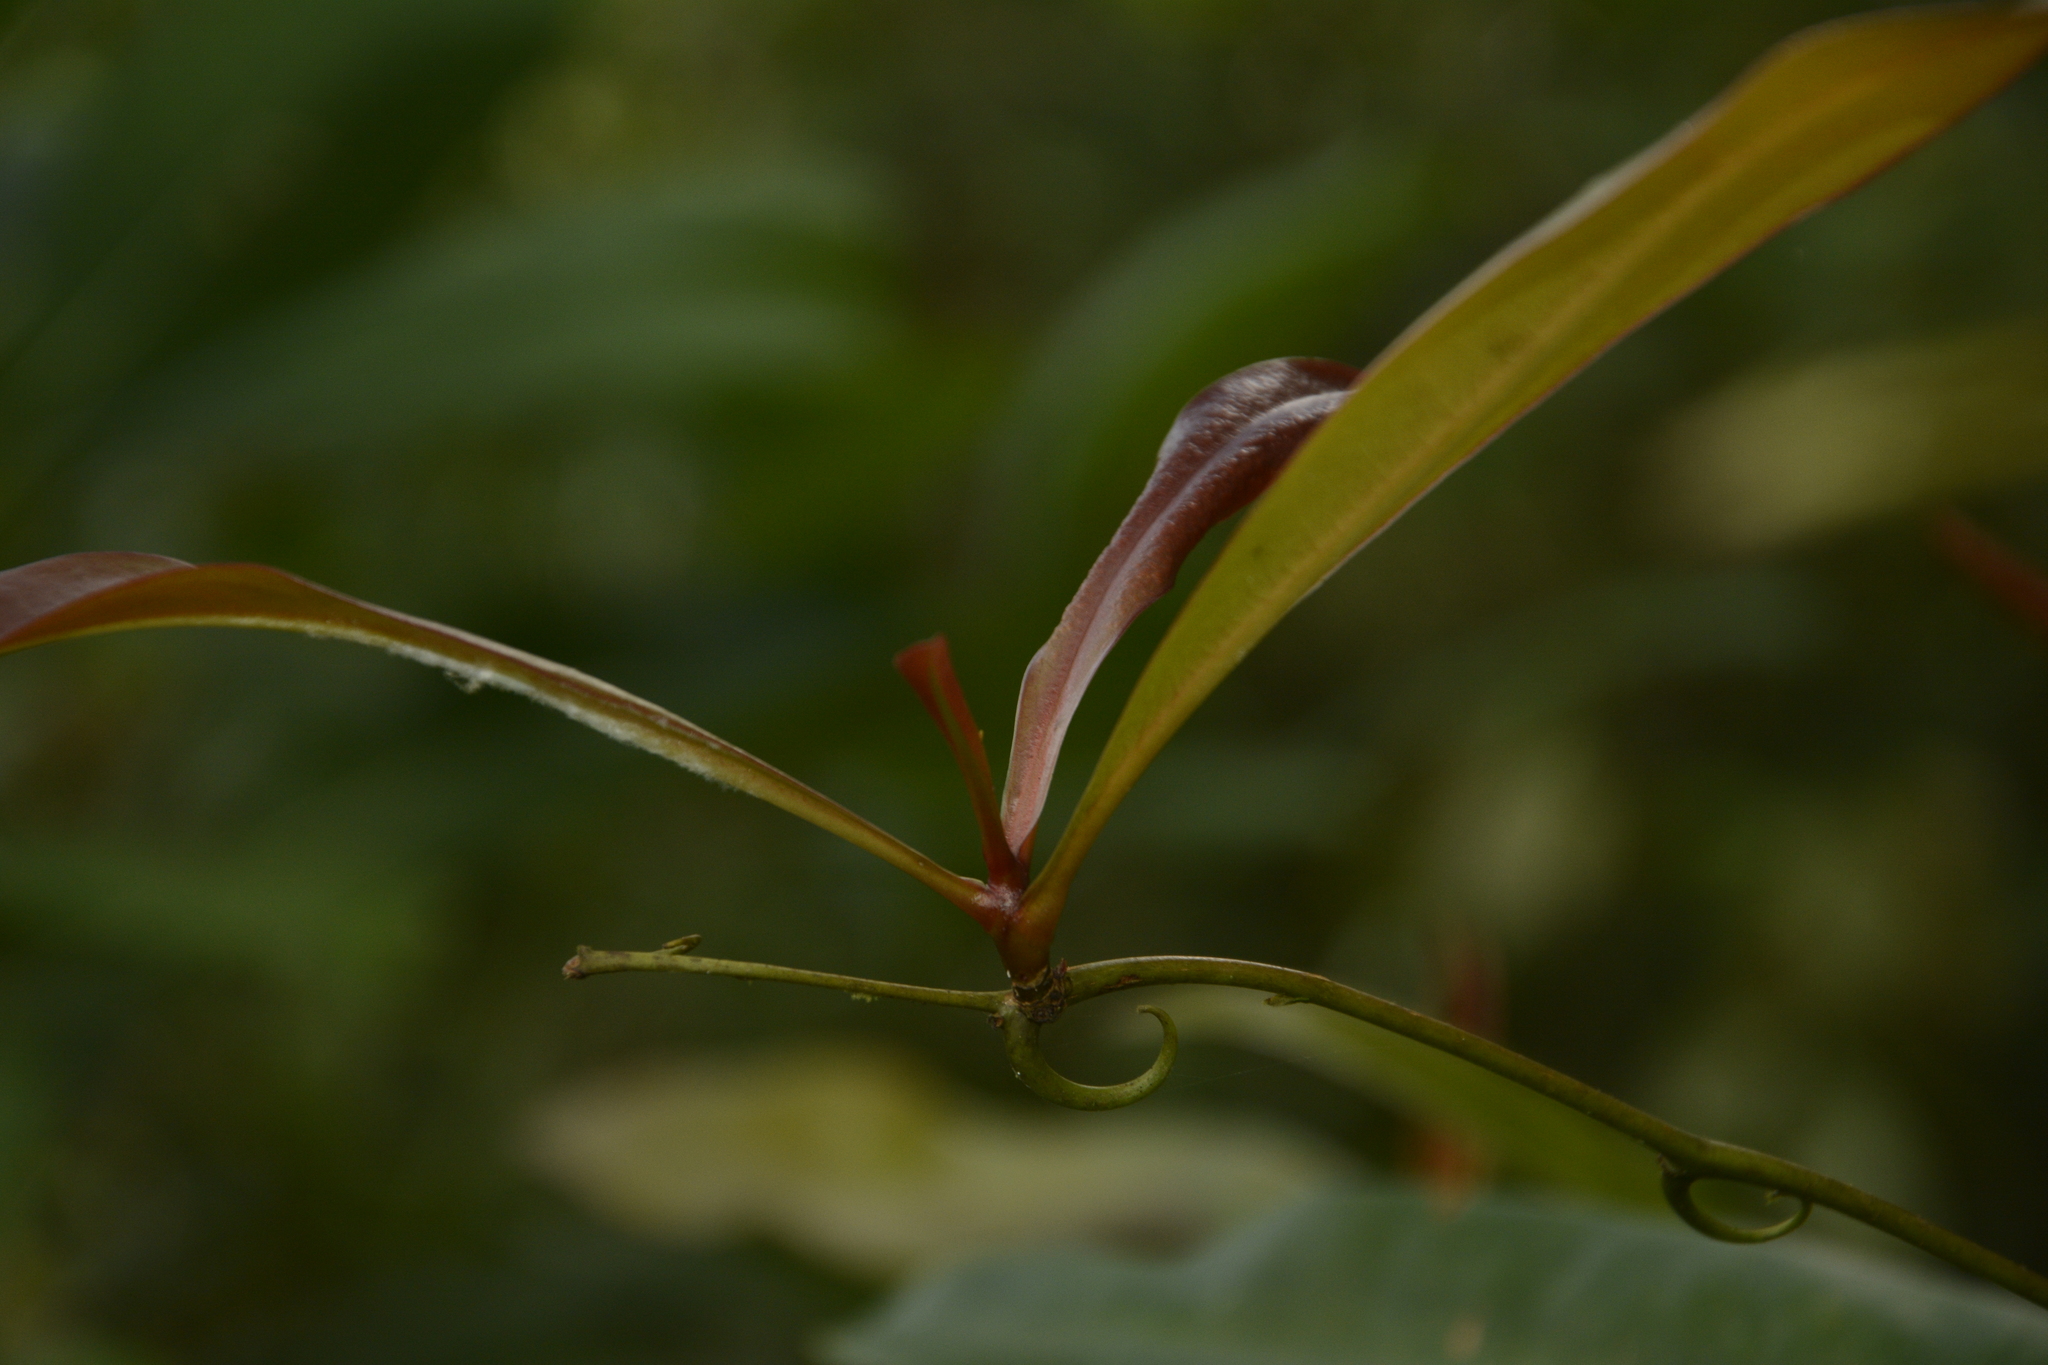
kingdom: Plantae
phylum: Tracheophyta
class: Magnoliopsida
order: Caryophyllales
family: Ancistrocladaceae
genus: Ancistrocladus
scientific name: Ancistrocladus heyneanus
